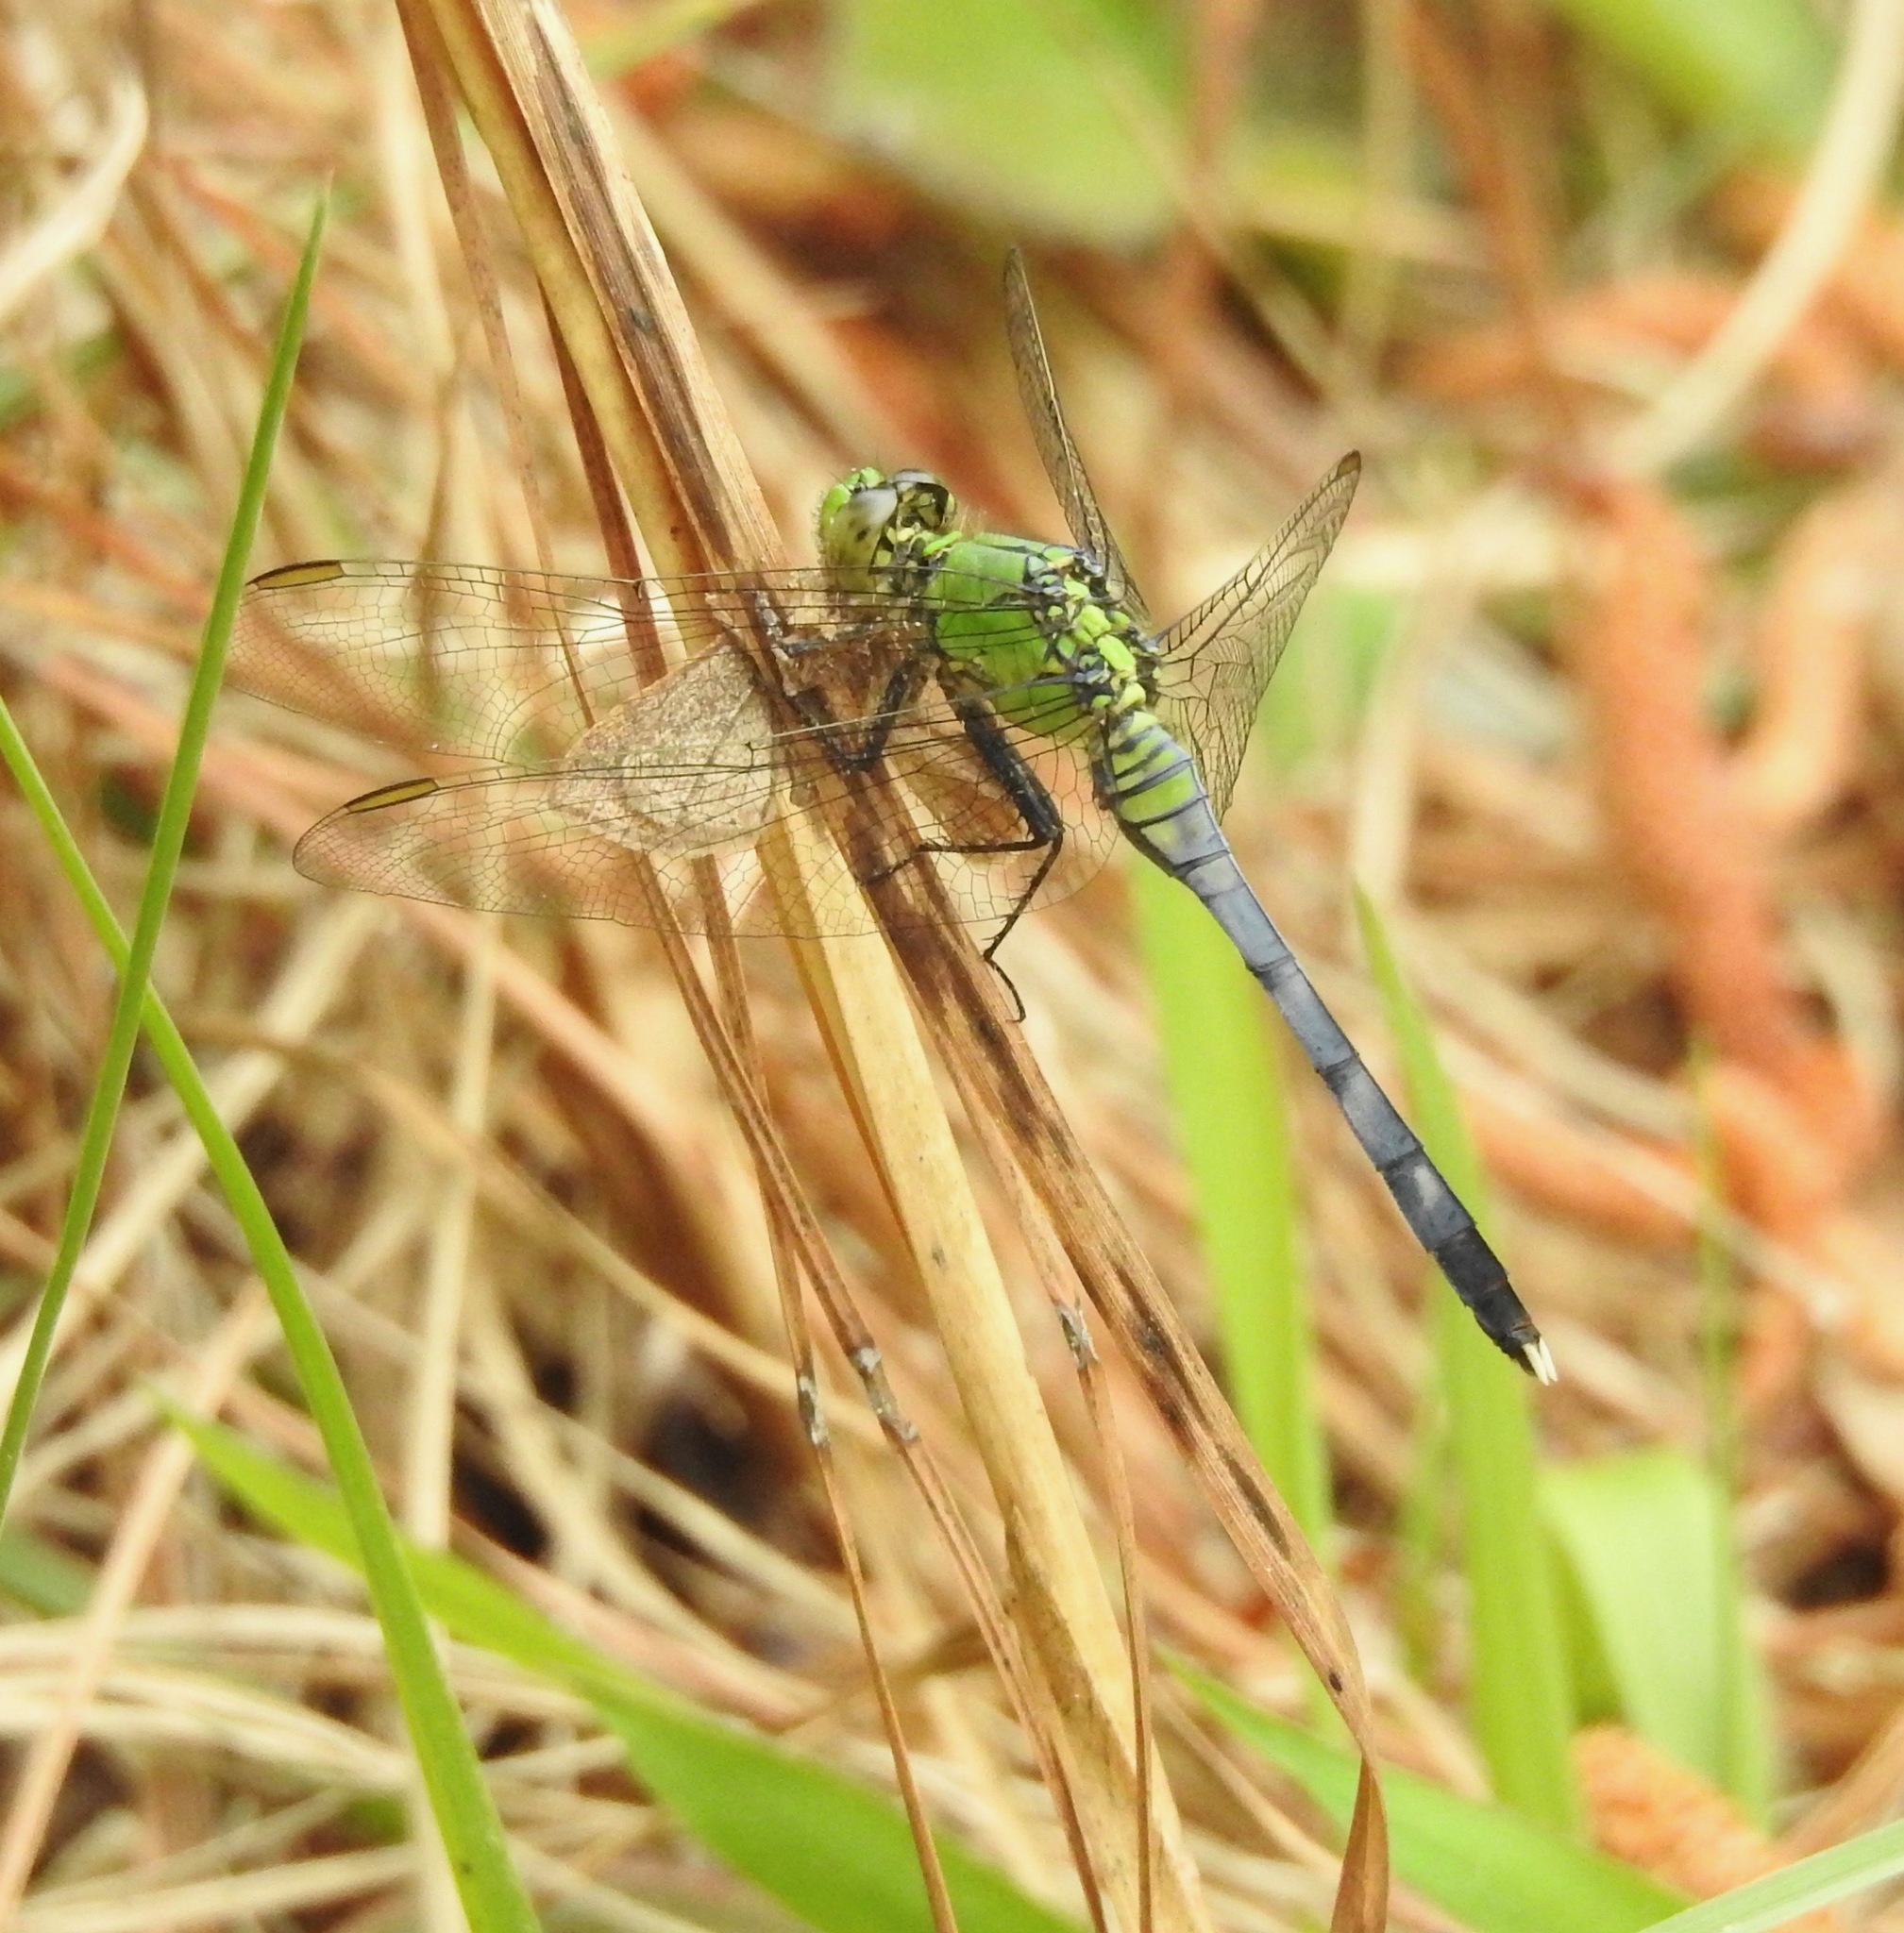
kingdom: Animalia
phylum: Arthropoda
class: Insecta
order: Odonata
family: Libellulidae
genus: Erythemis
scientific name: Erythemis simplicicollis
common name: Eastern pondhawk
